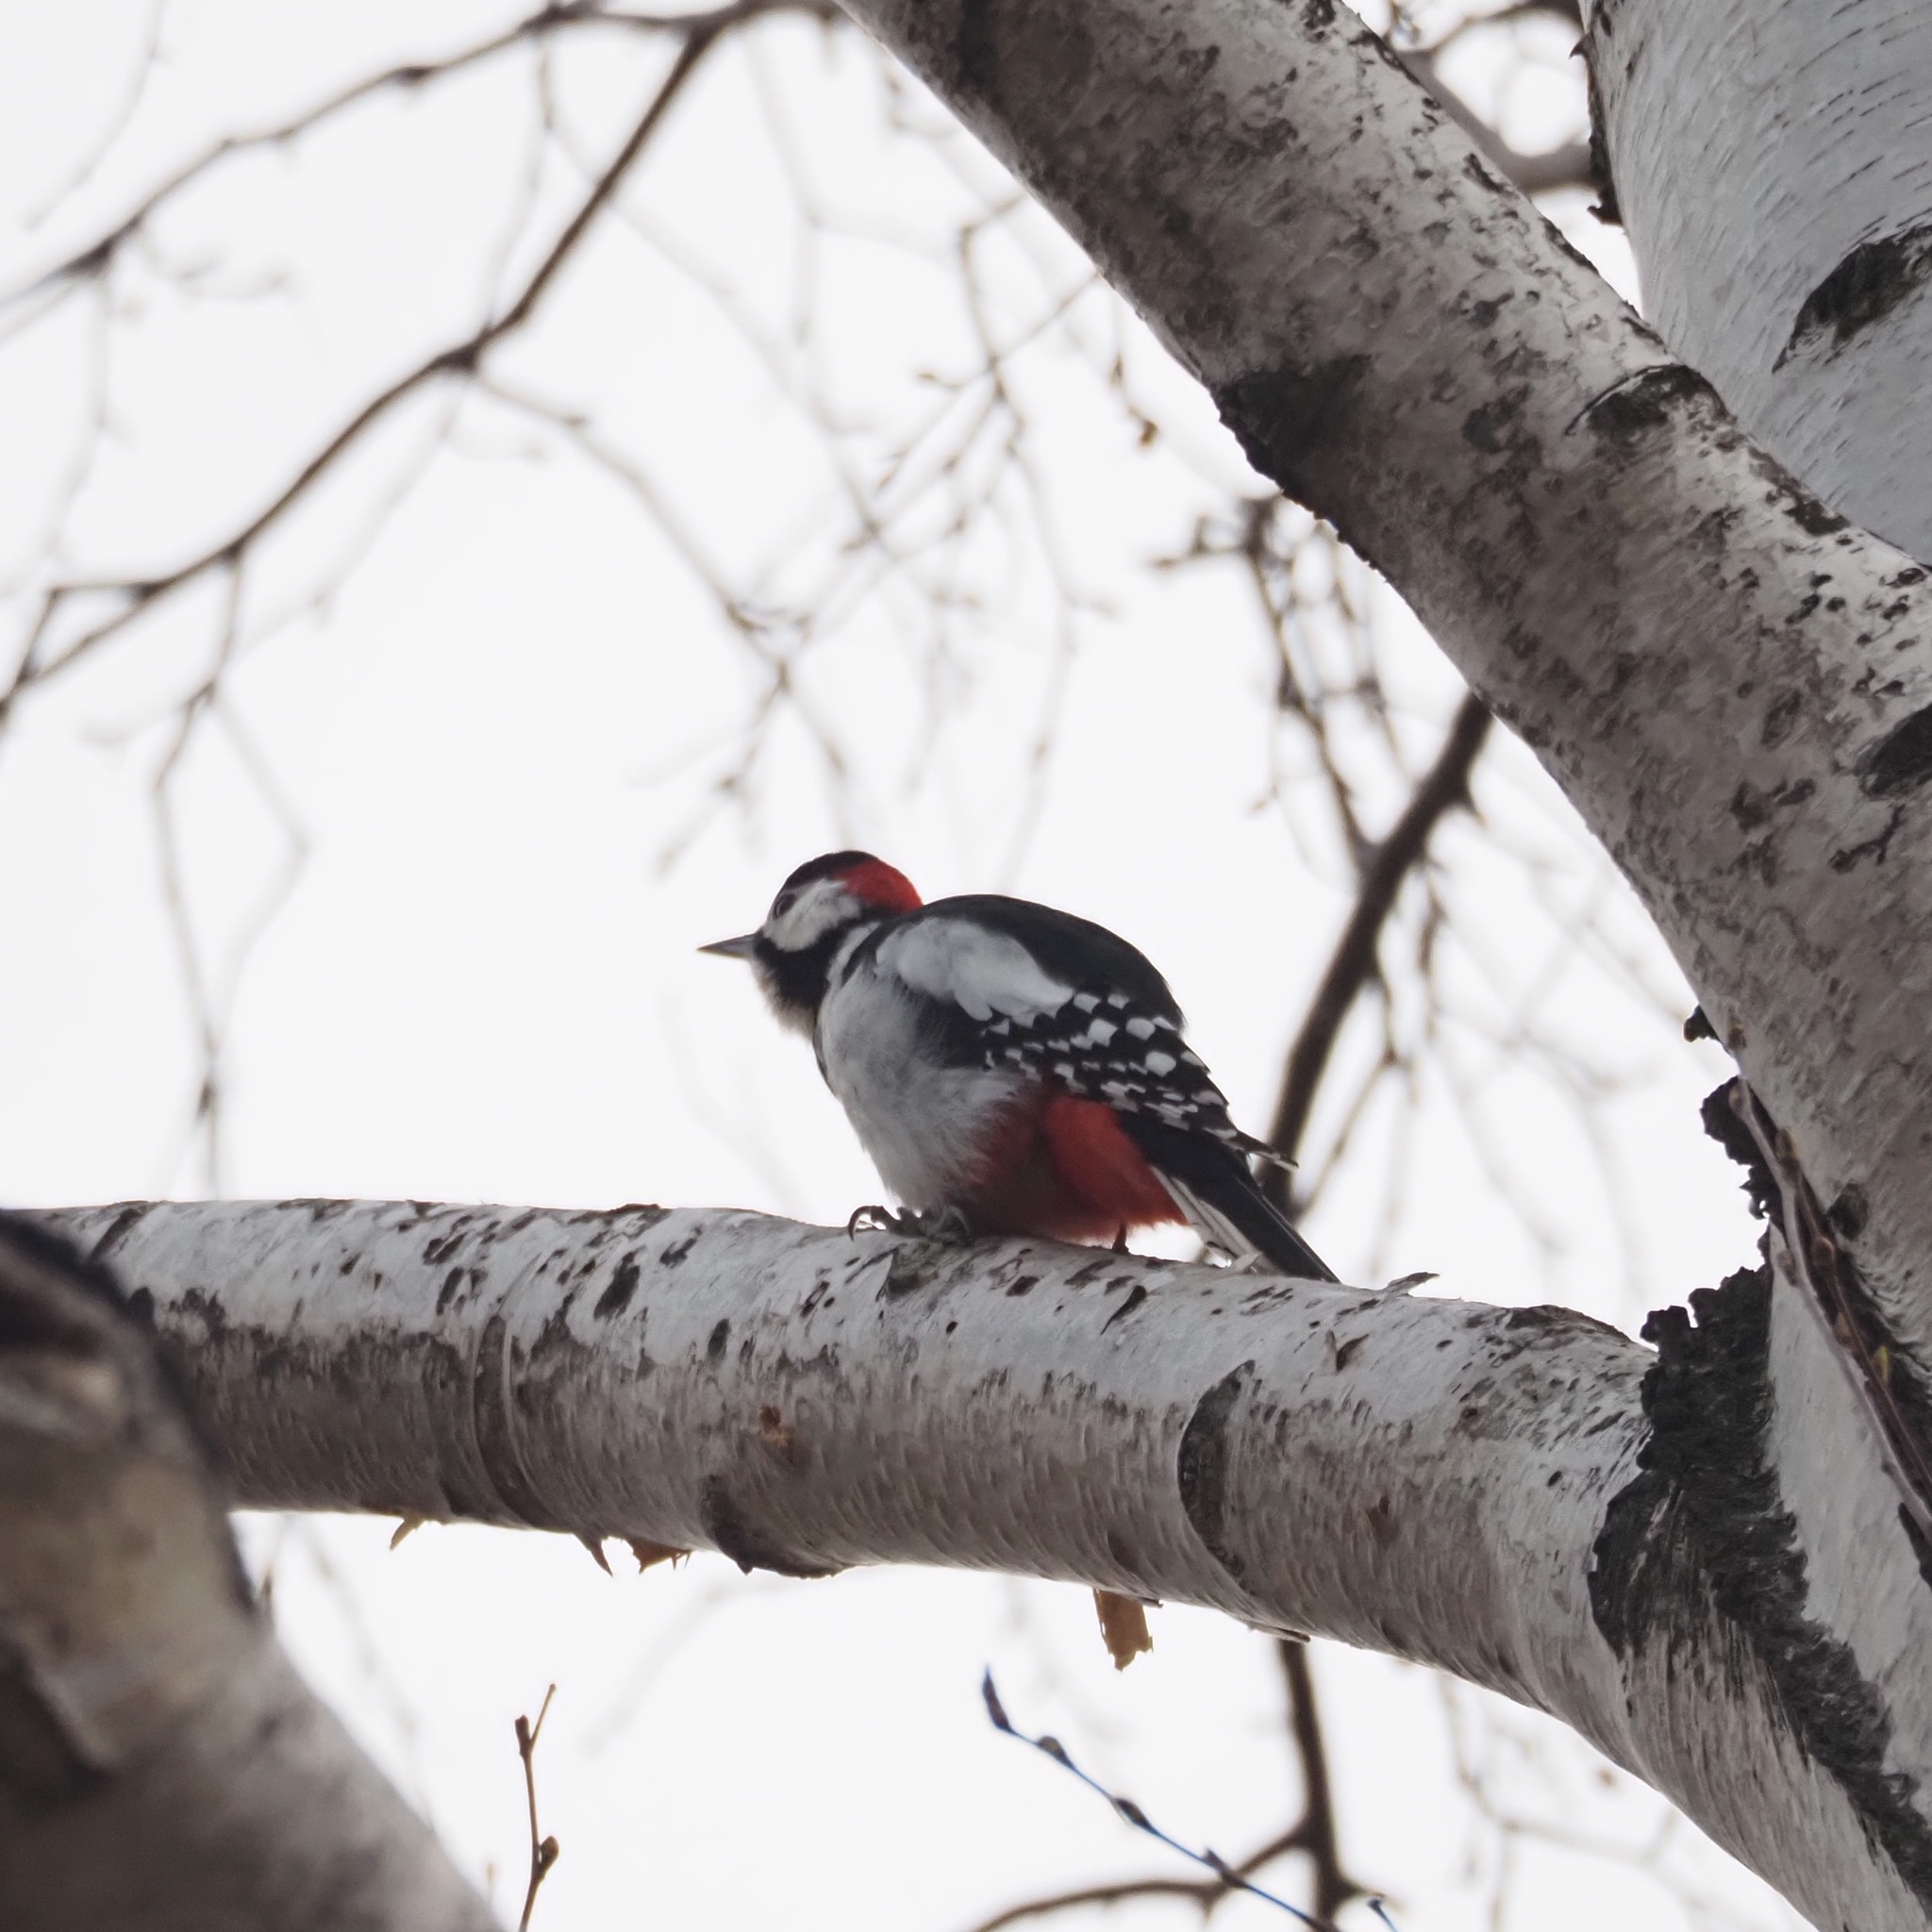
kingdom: Animalia
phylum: Chordata
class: Aves
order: Piciformes
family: Picidae
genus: Dendrocopos
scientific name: Dendrocopos major
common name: Great spotted woodpecker
